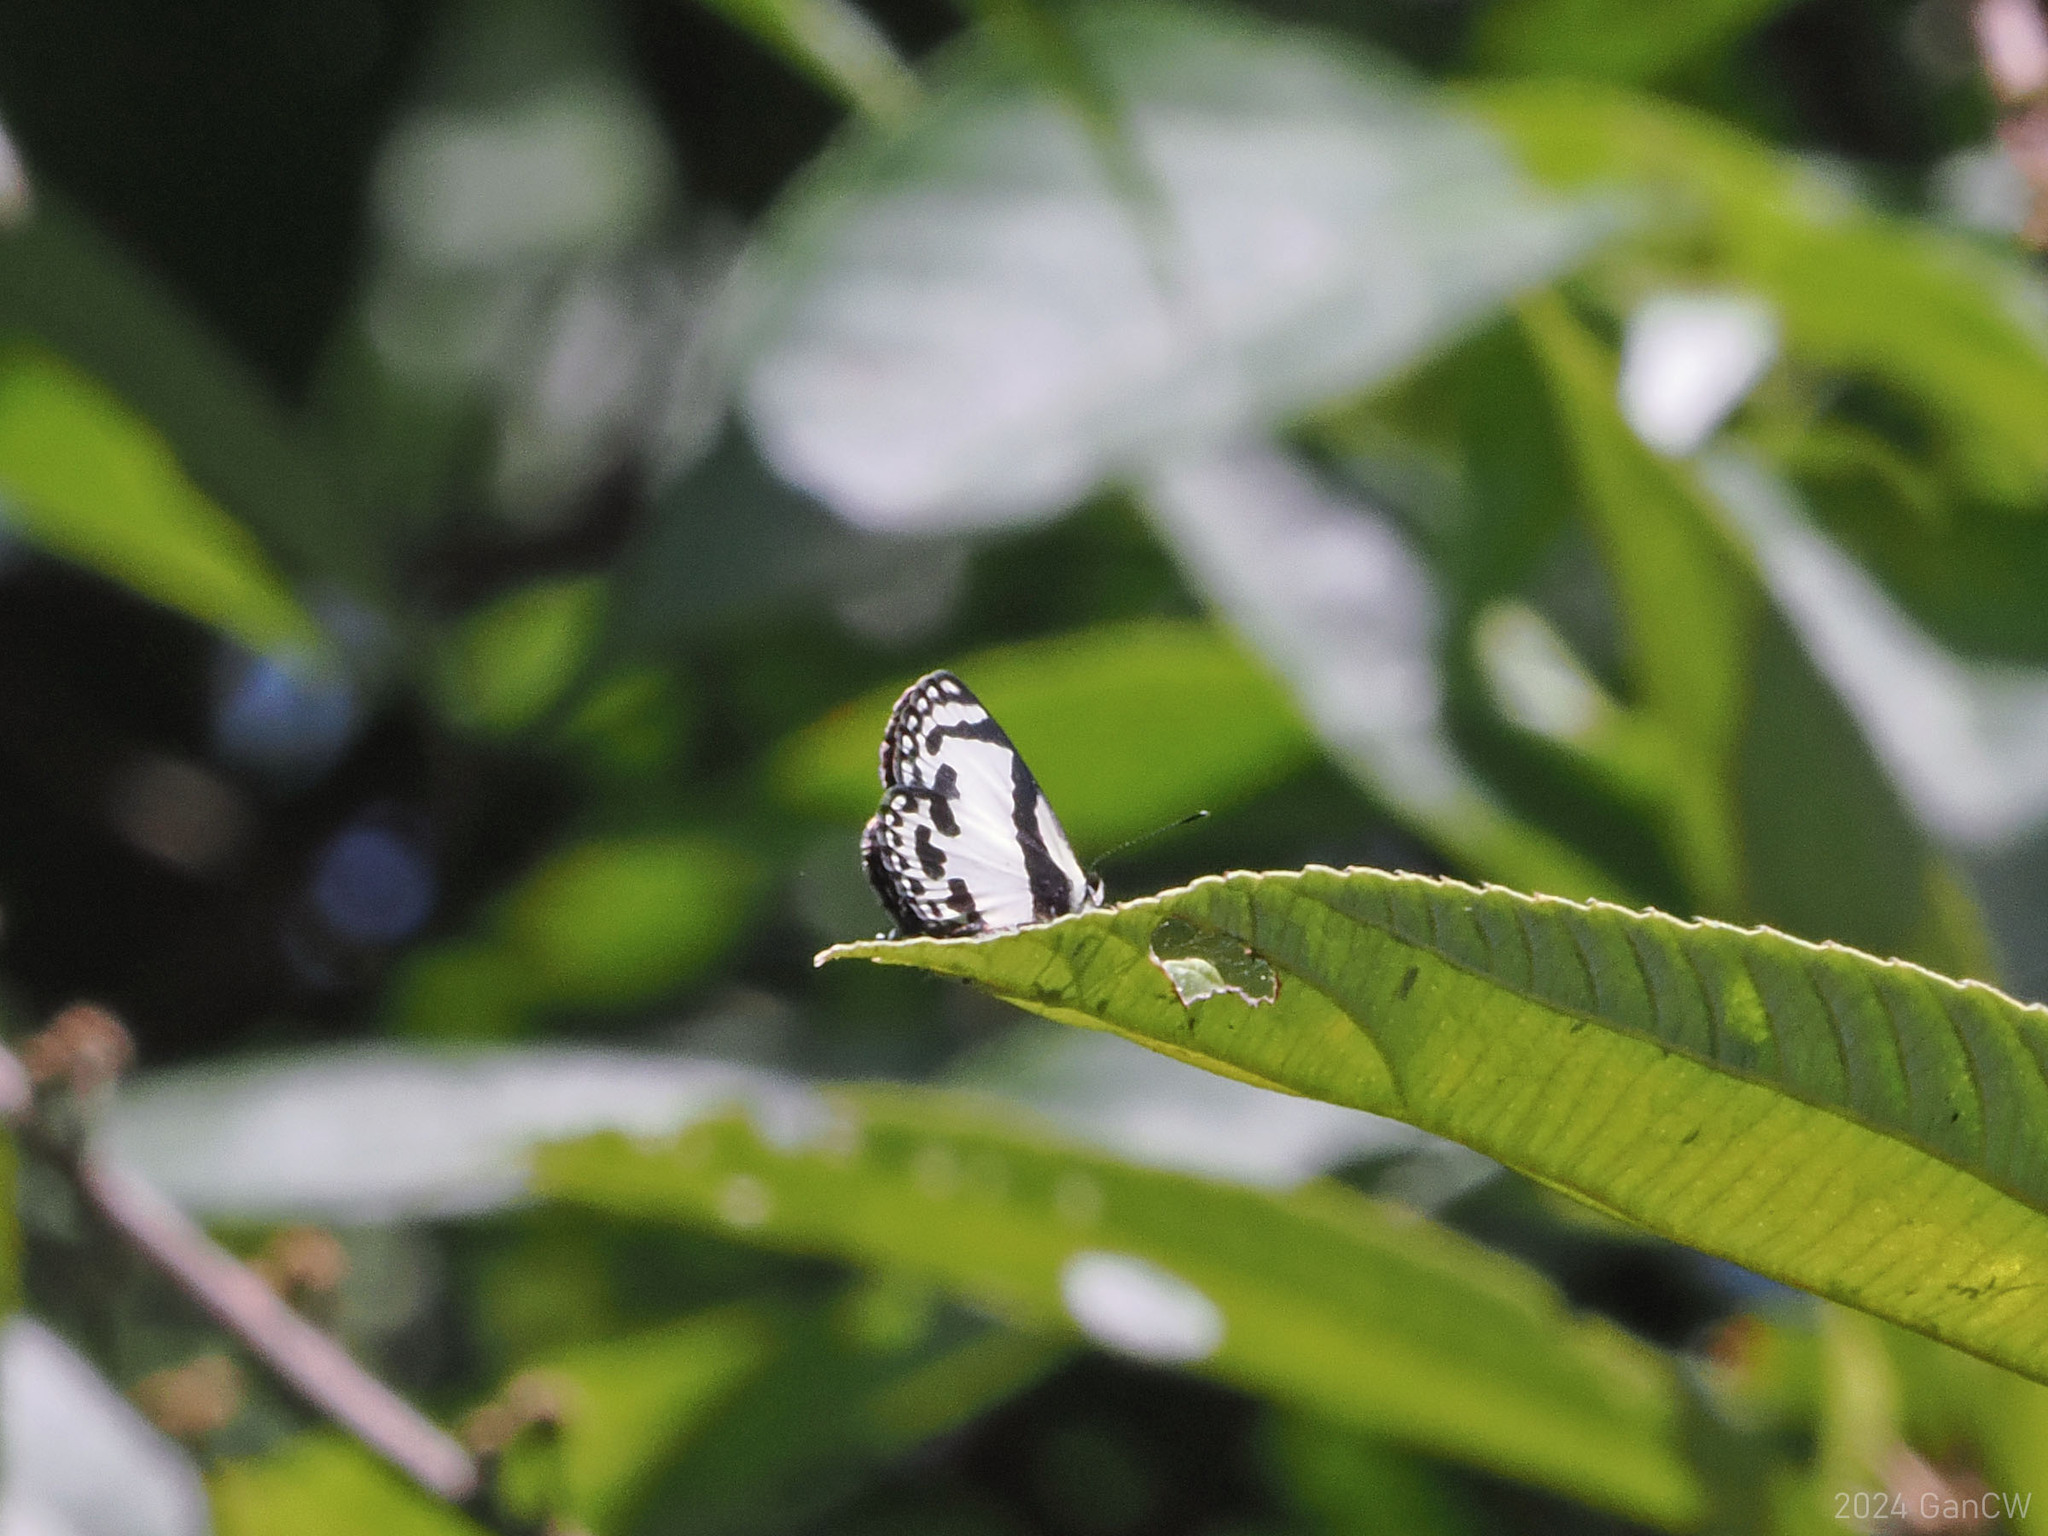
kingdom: Animalia
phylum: Arthropoda
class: Insecta
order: Lepidoptera
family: Lycaenidae
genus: Caleta
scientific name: Caleta roxus
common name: Straight pierrot
